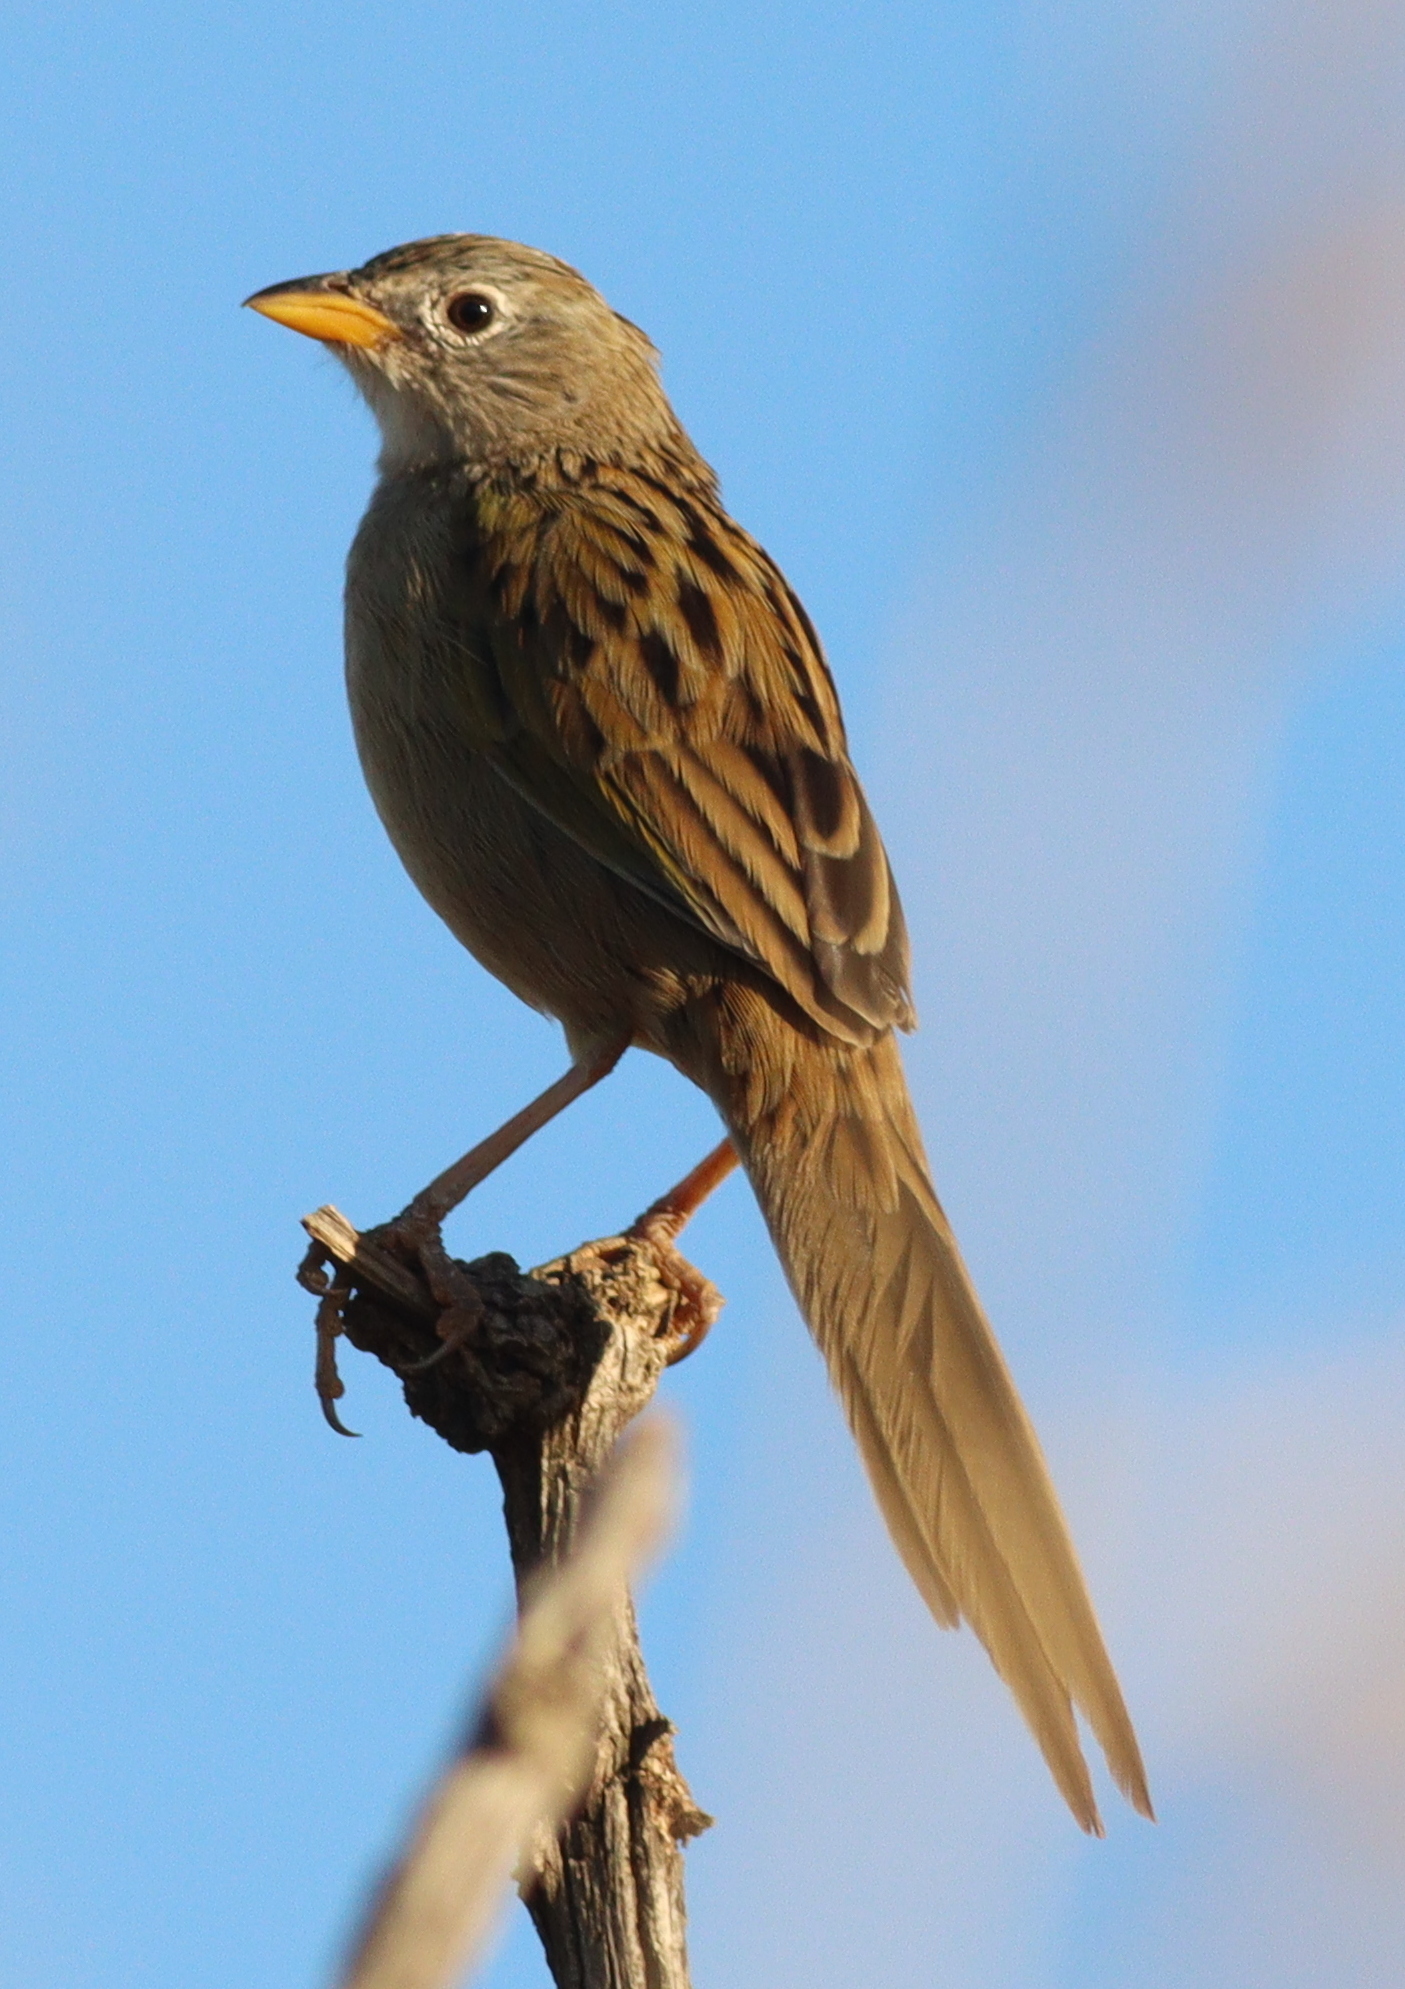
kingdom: Animalia
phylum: Chordata
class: Aves
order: Passeriformes
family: Thraupidae
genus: Emberizoides
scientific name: Emberizoides herbicola
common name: Wedge-tailed grass-finch
